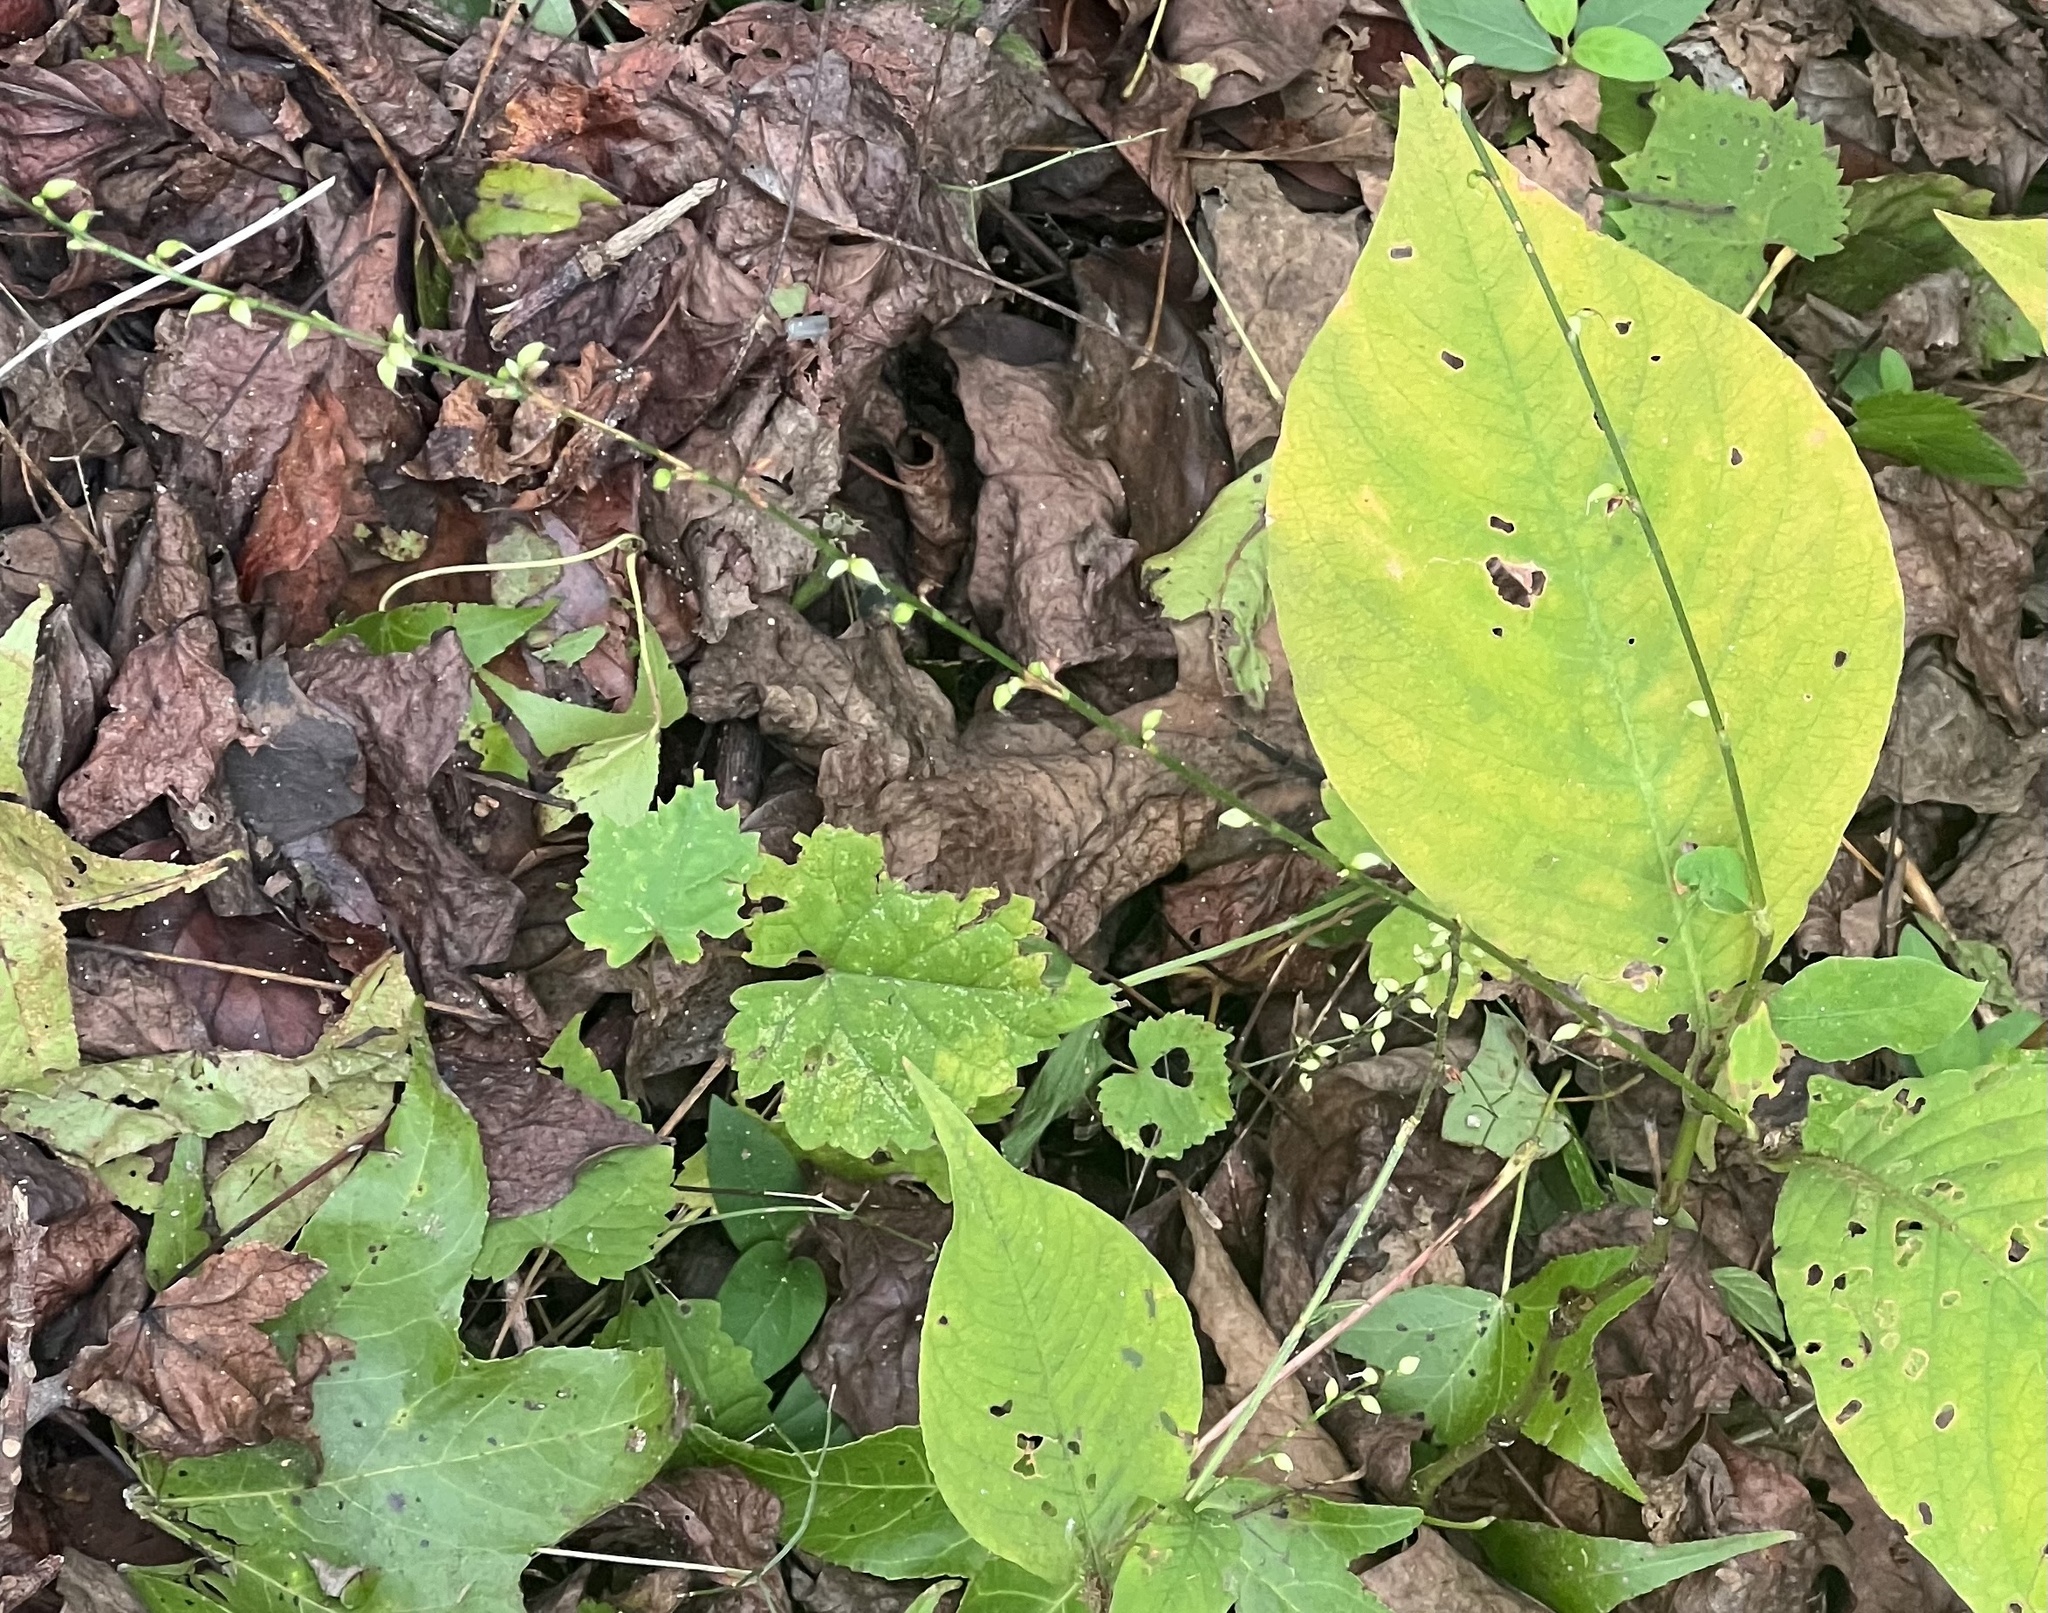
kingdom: Plantae
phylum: Tracheophyta
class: Magnoliopsida
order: Caryophyllales
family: Polygonaceae
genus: Persicaria
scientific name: Persicaria virginiana
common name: Jumpseed
